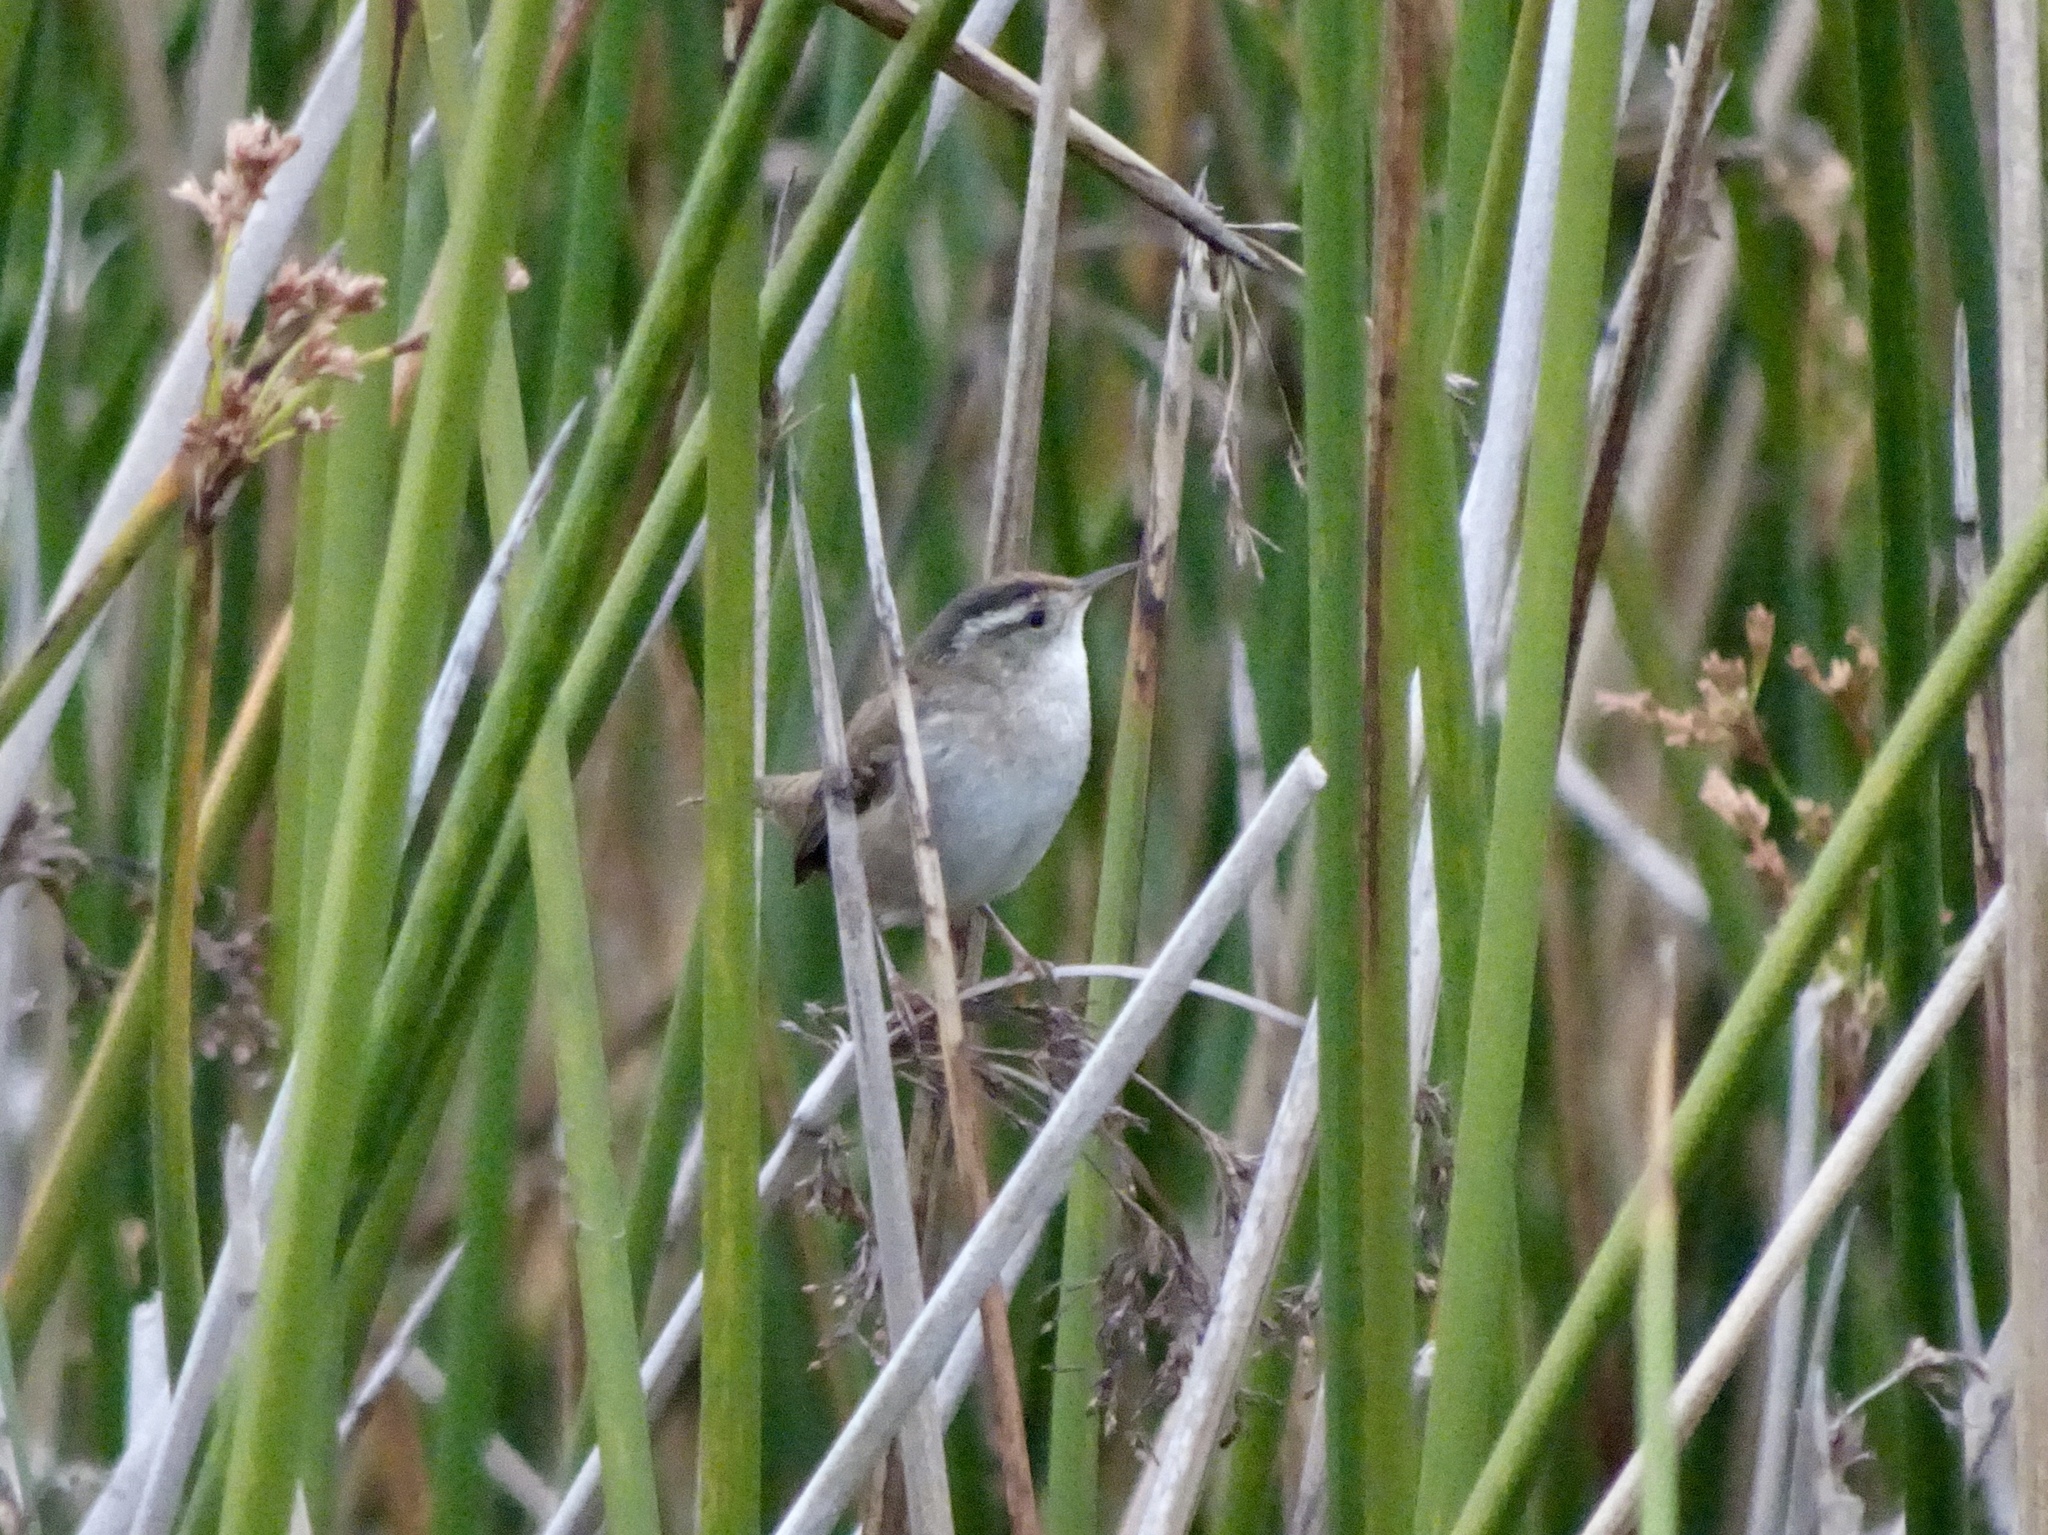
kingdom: Animalia
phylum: Chordata
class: Aves
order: Passeriformes
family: Troglodytidae
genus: Cistothorus
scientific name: Cistothorus palustris
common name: Marsh wren
